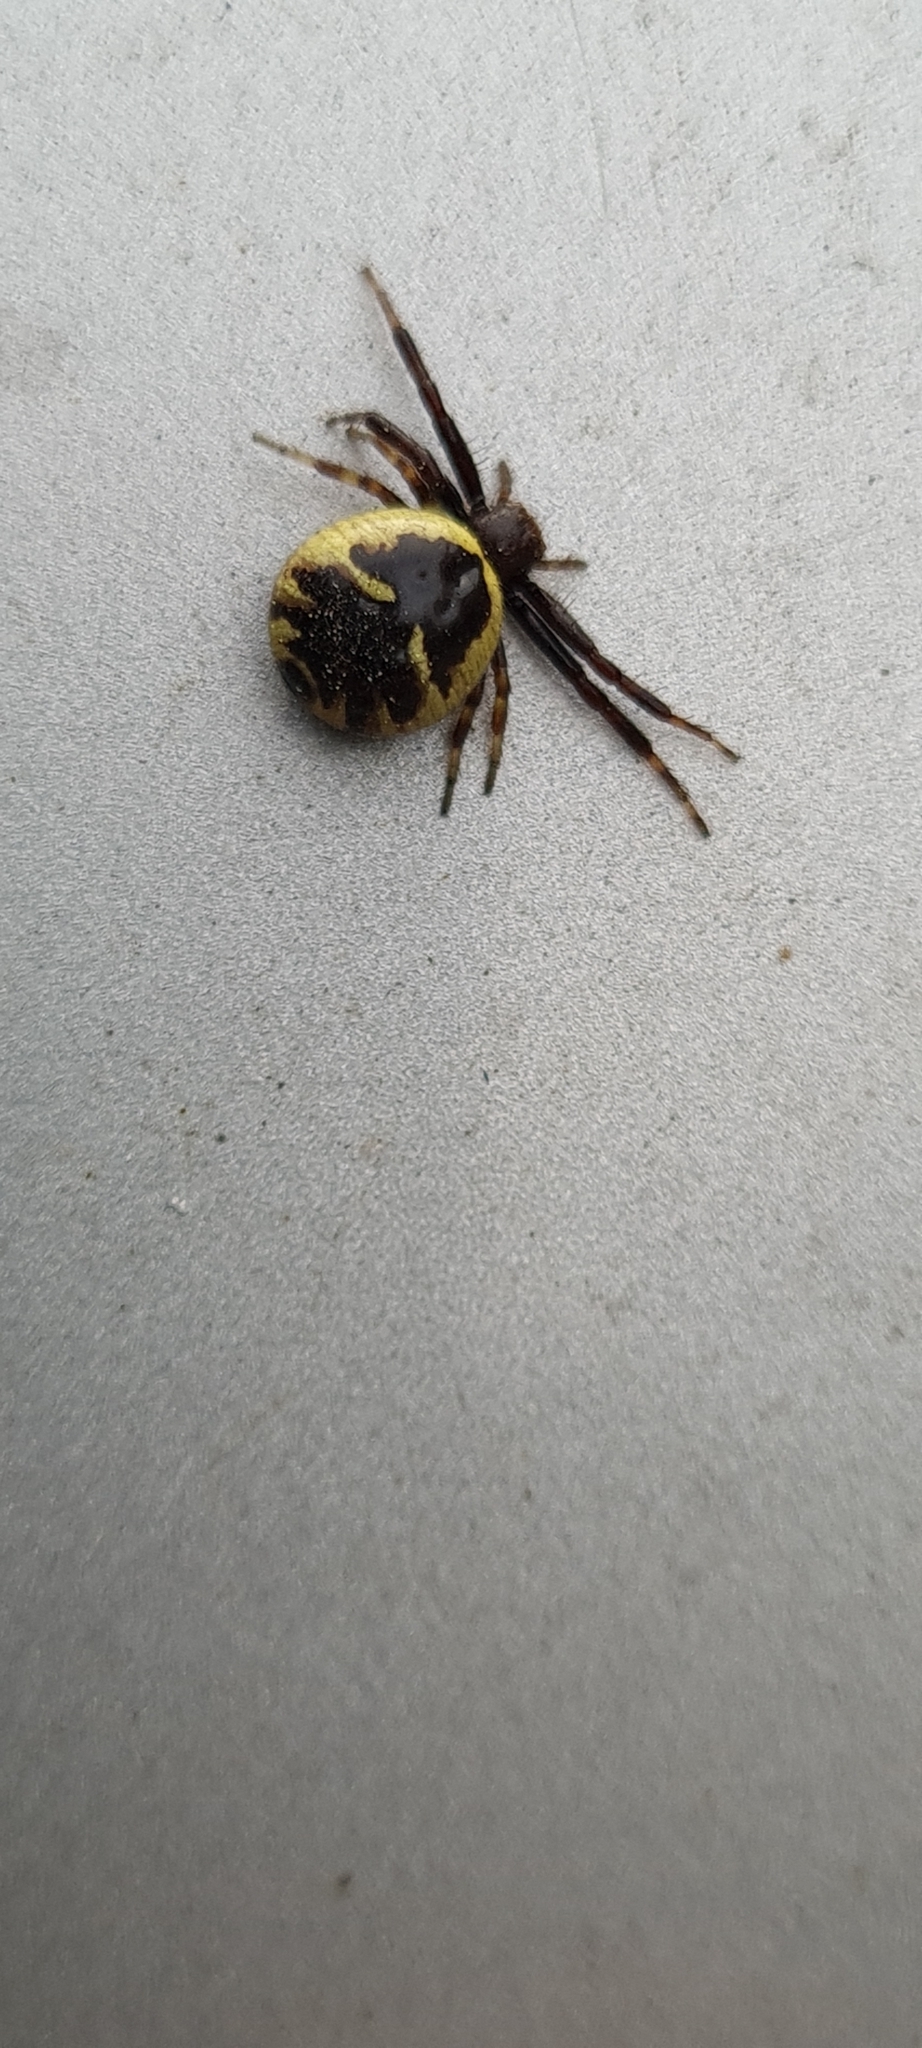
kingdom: Animalia
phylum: Arthropoda
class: Arachnida
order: Araneae
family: Thomisidae
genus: Synema
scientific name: Synema globosum
